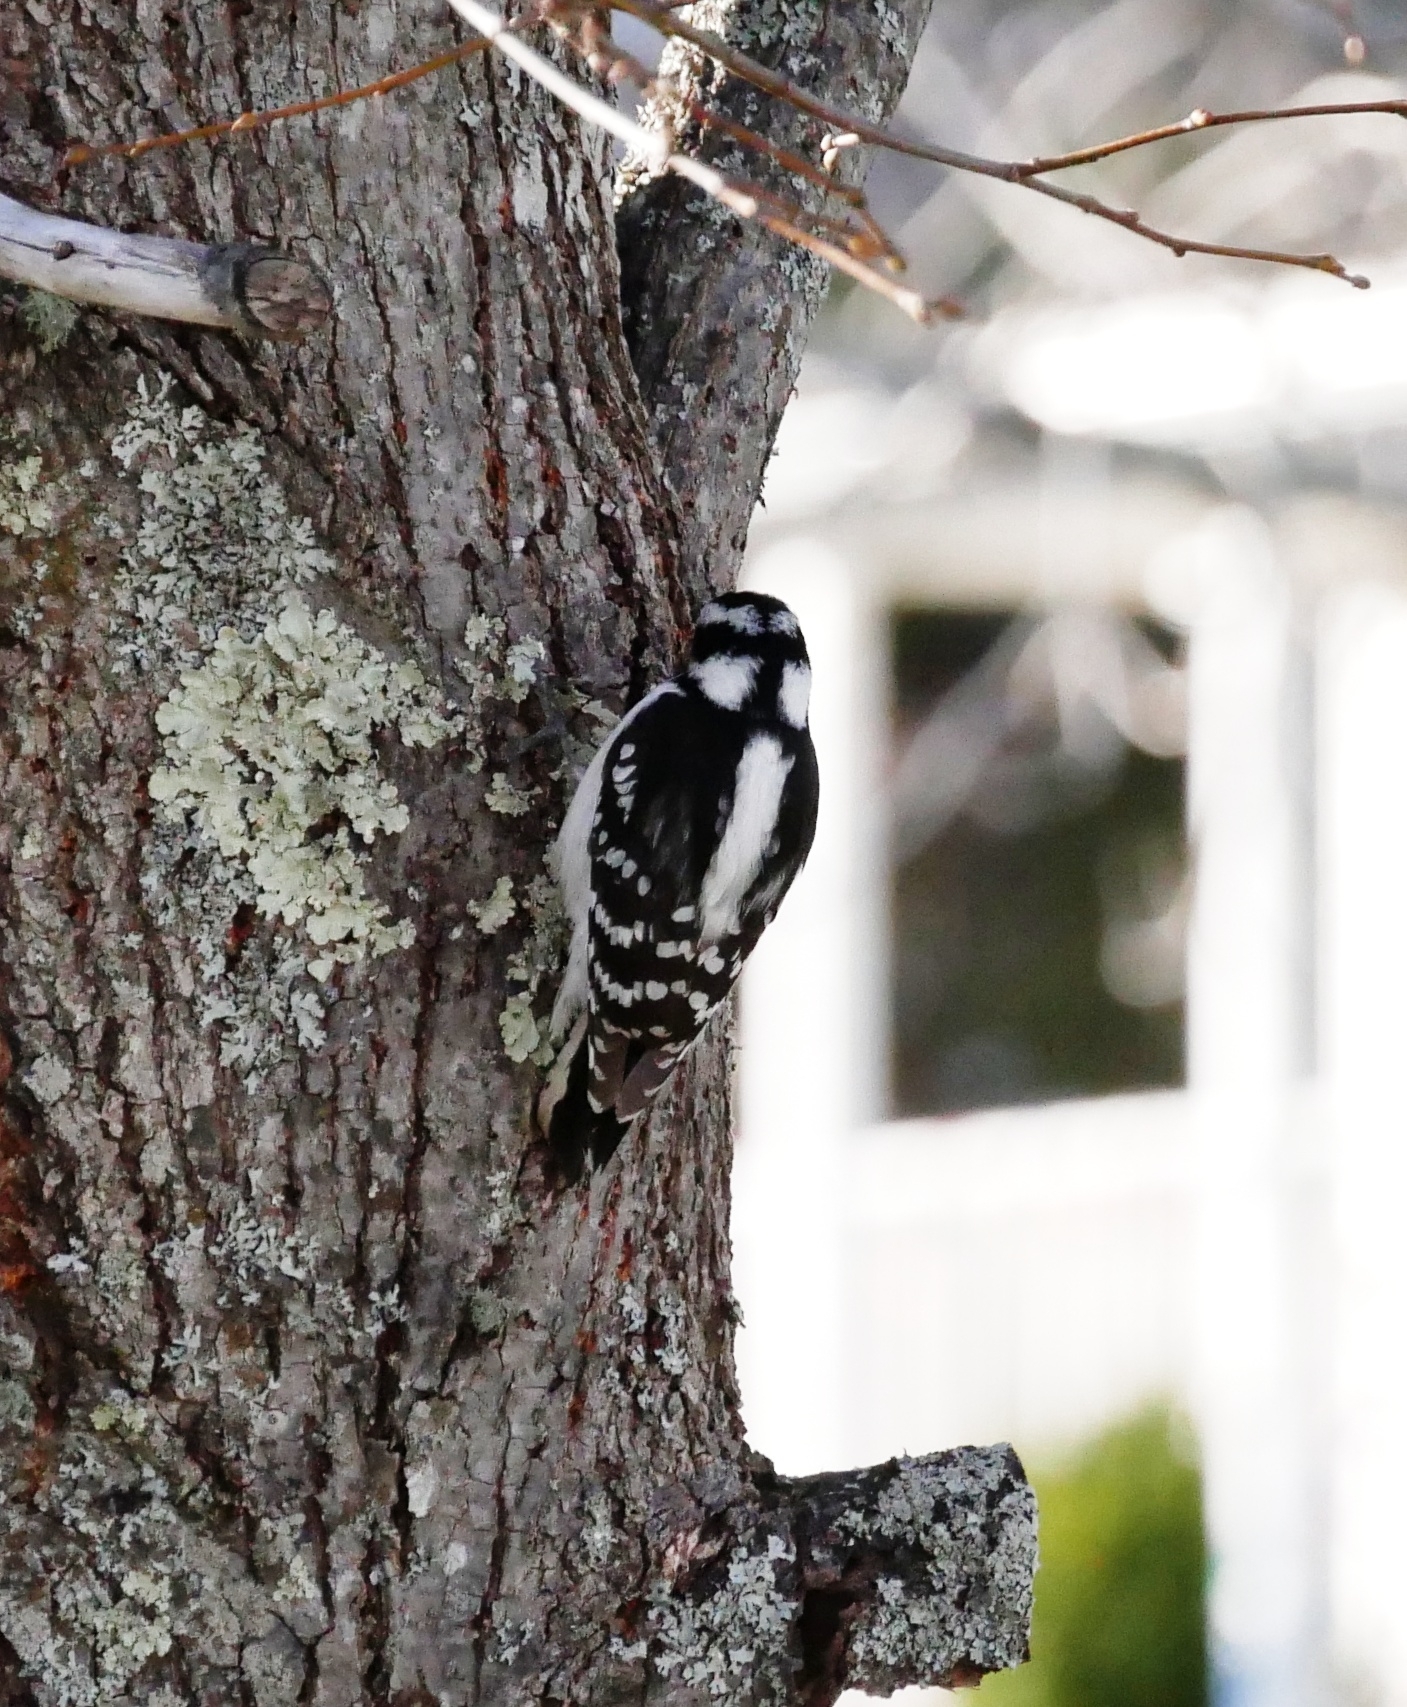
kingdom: Animalia
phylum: Chordata
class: Aves
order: Piciformes
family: Picidae
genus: Dryobates
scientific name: Dryobates pubescens
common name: Downy woodpecker
